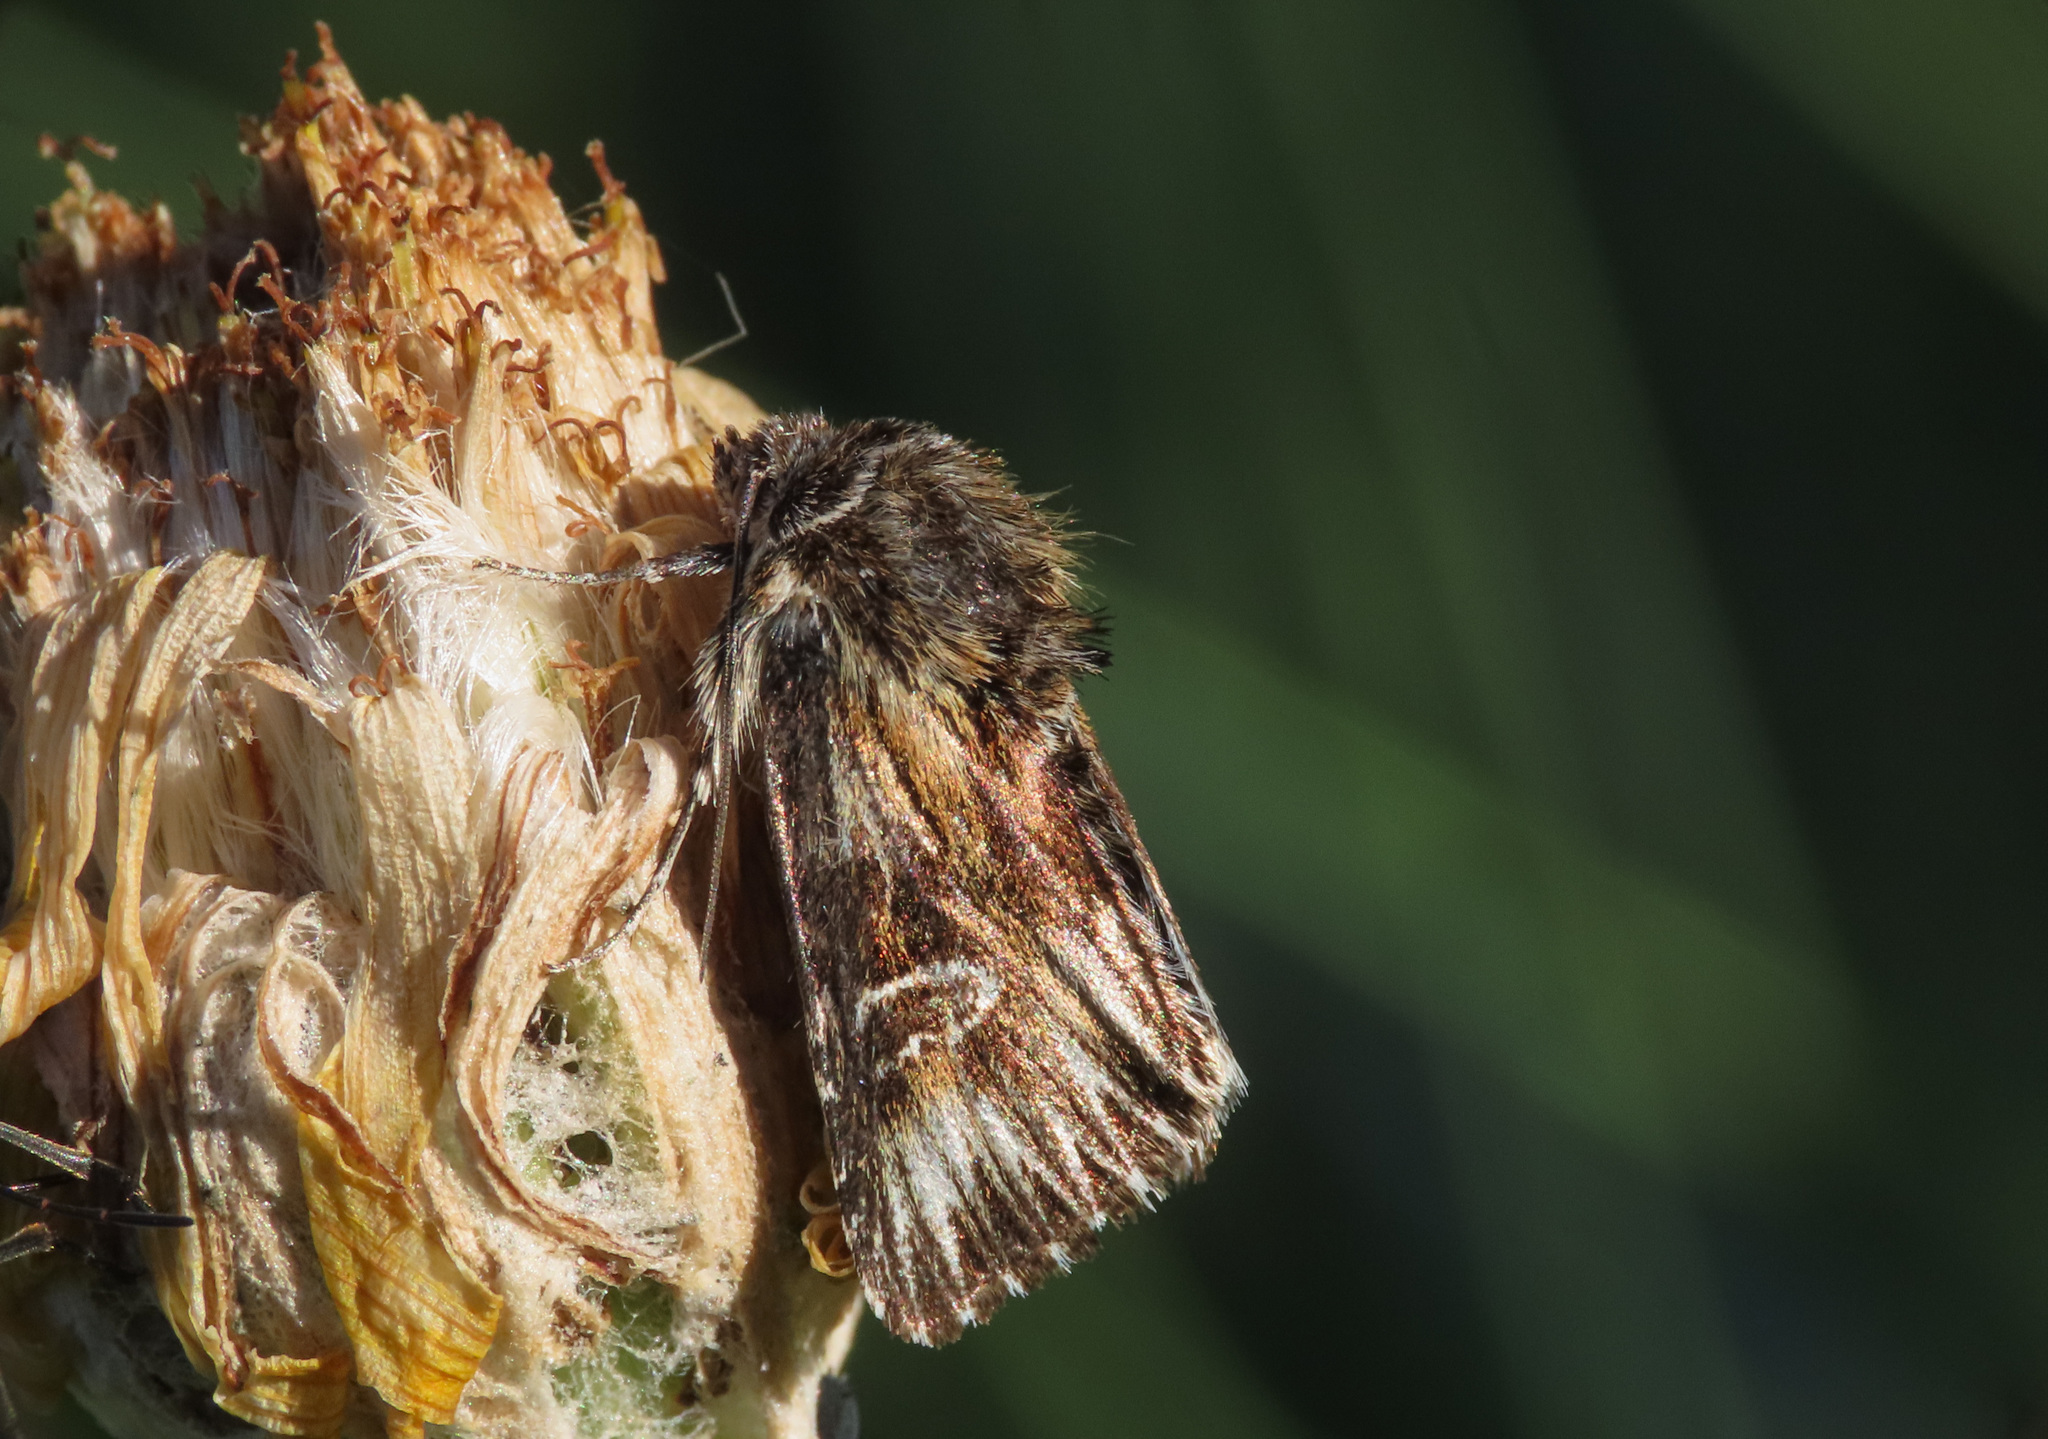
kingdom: Animalia
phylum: Arthropoda
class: Insecta
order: Lepidoptera
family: Noctuidae
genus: Actinotia
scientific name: Actinotia radiosa
